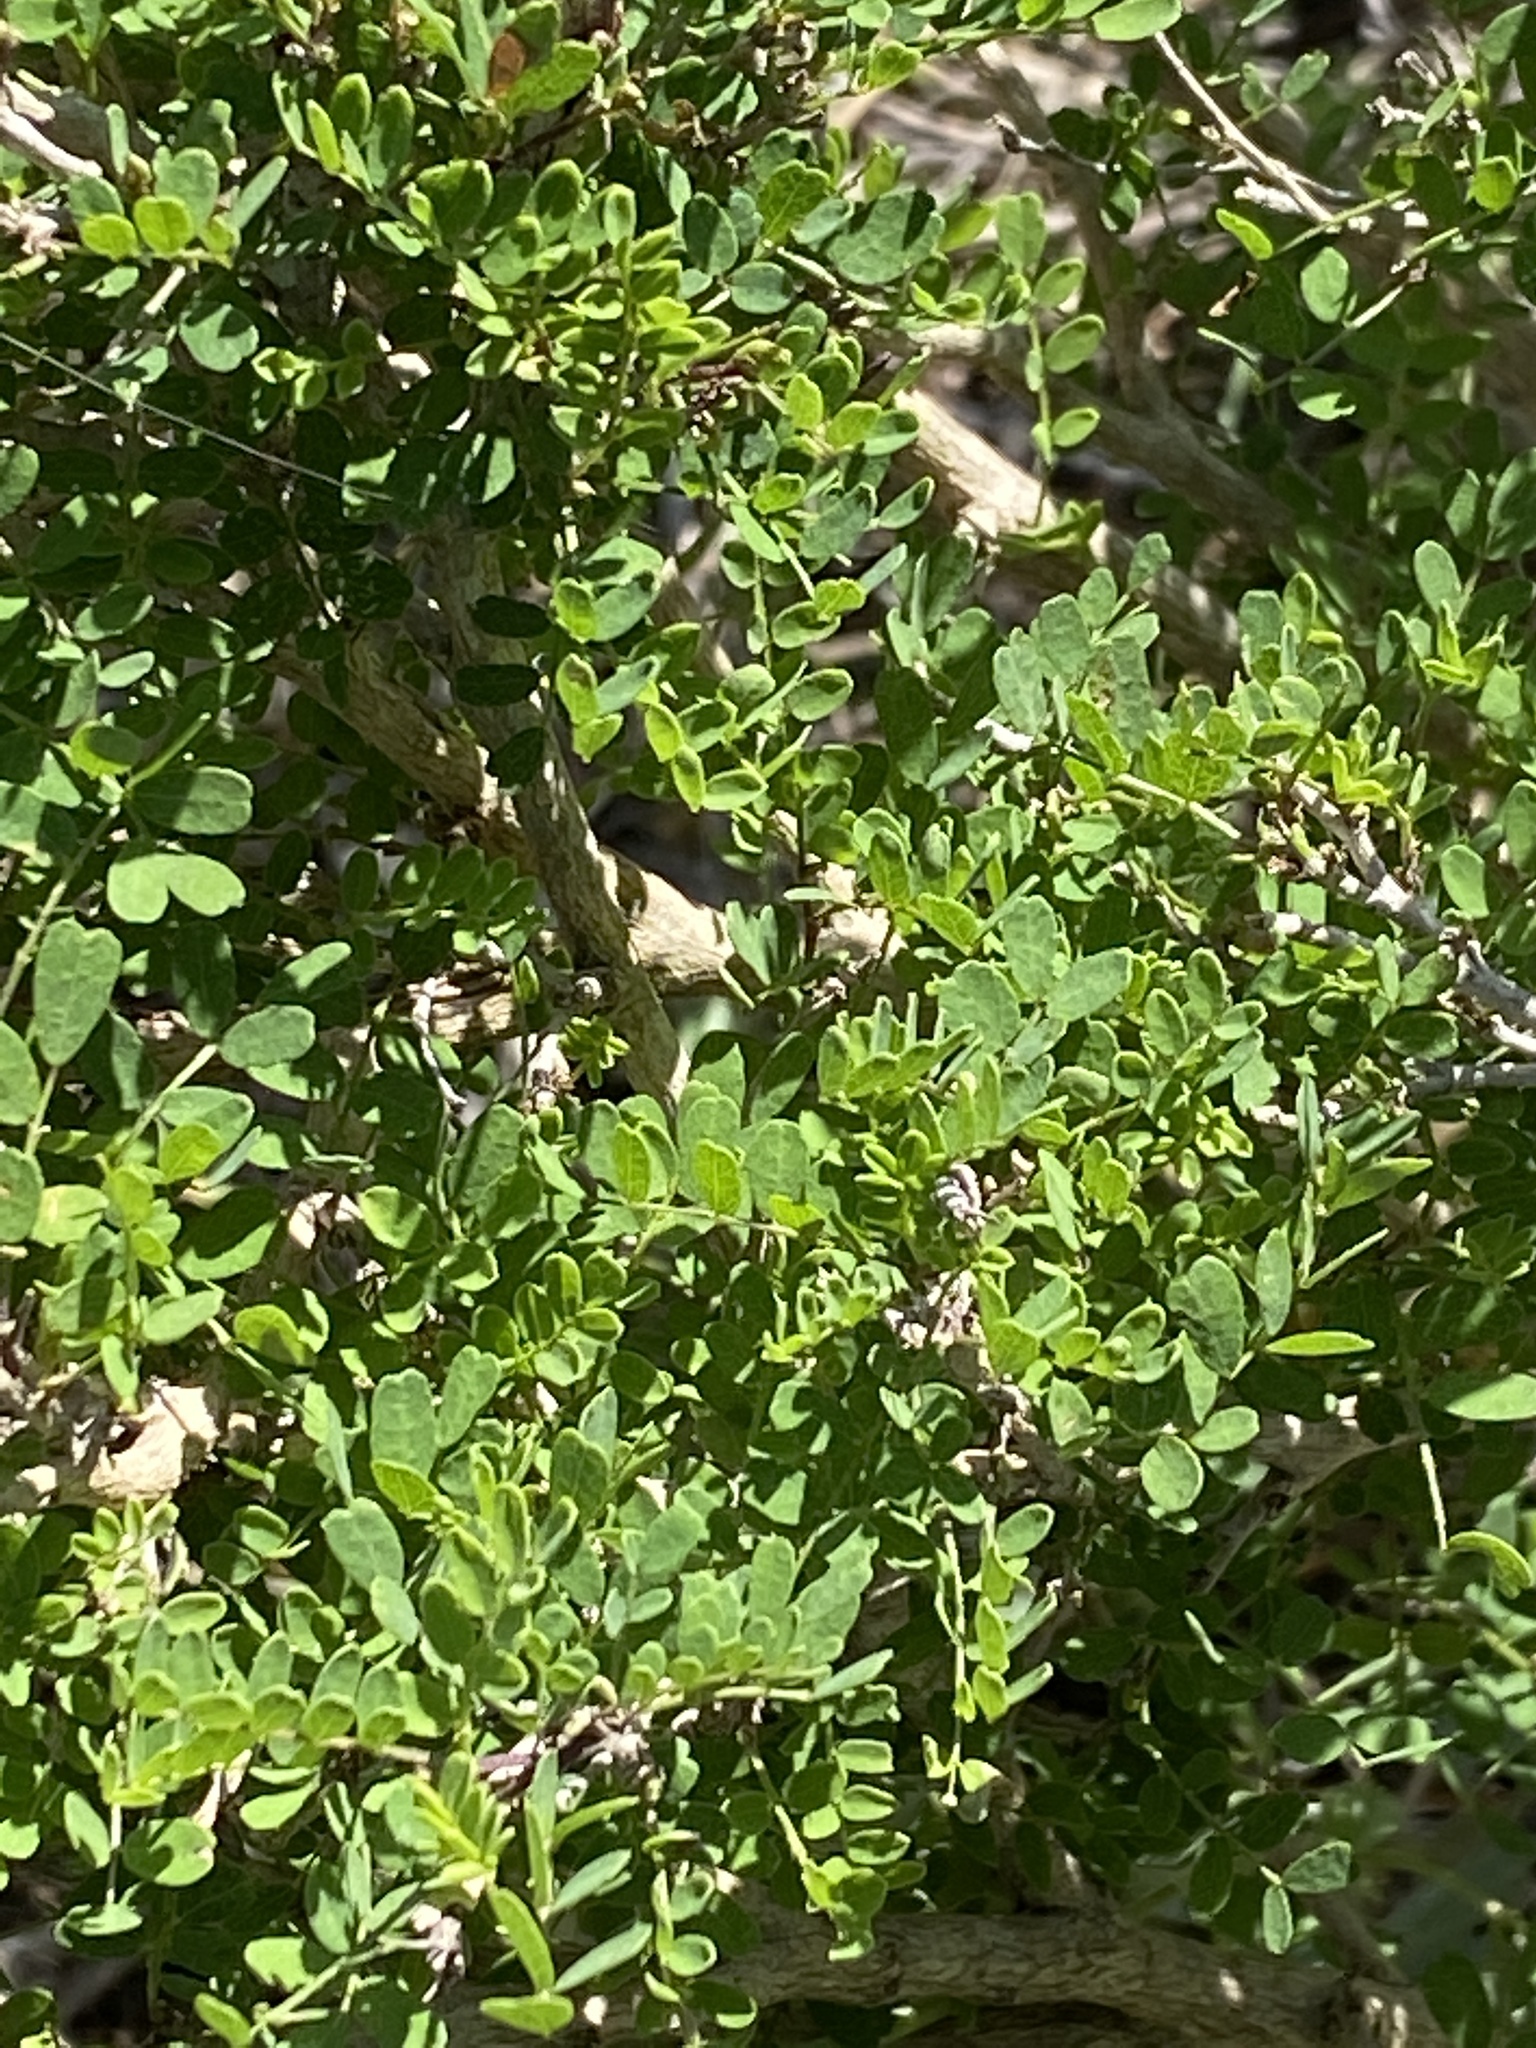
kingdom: Plantae
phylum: Tracheophyta
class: Magnoliopsida
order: Fabales
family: Fabaceae
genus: Eysenhardtia
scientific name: Eysenhardtia texana
